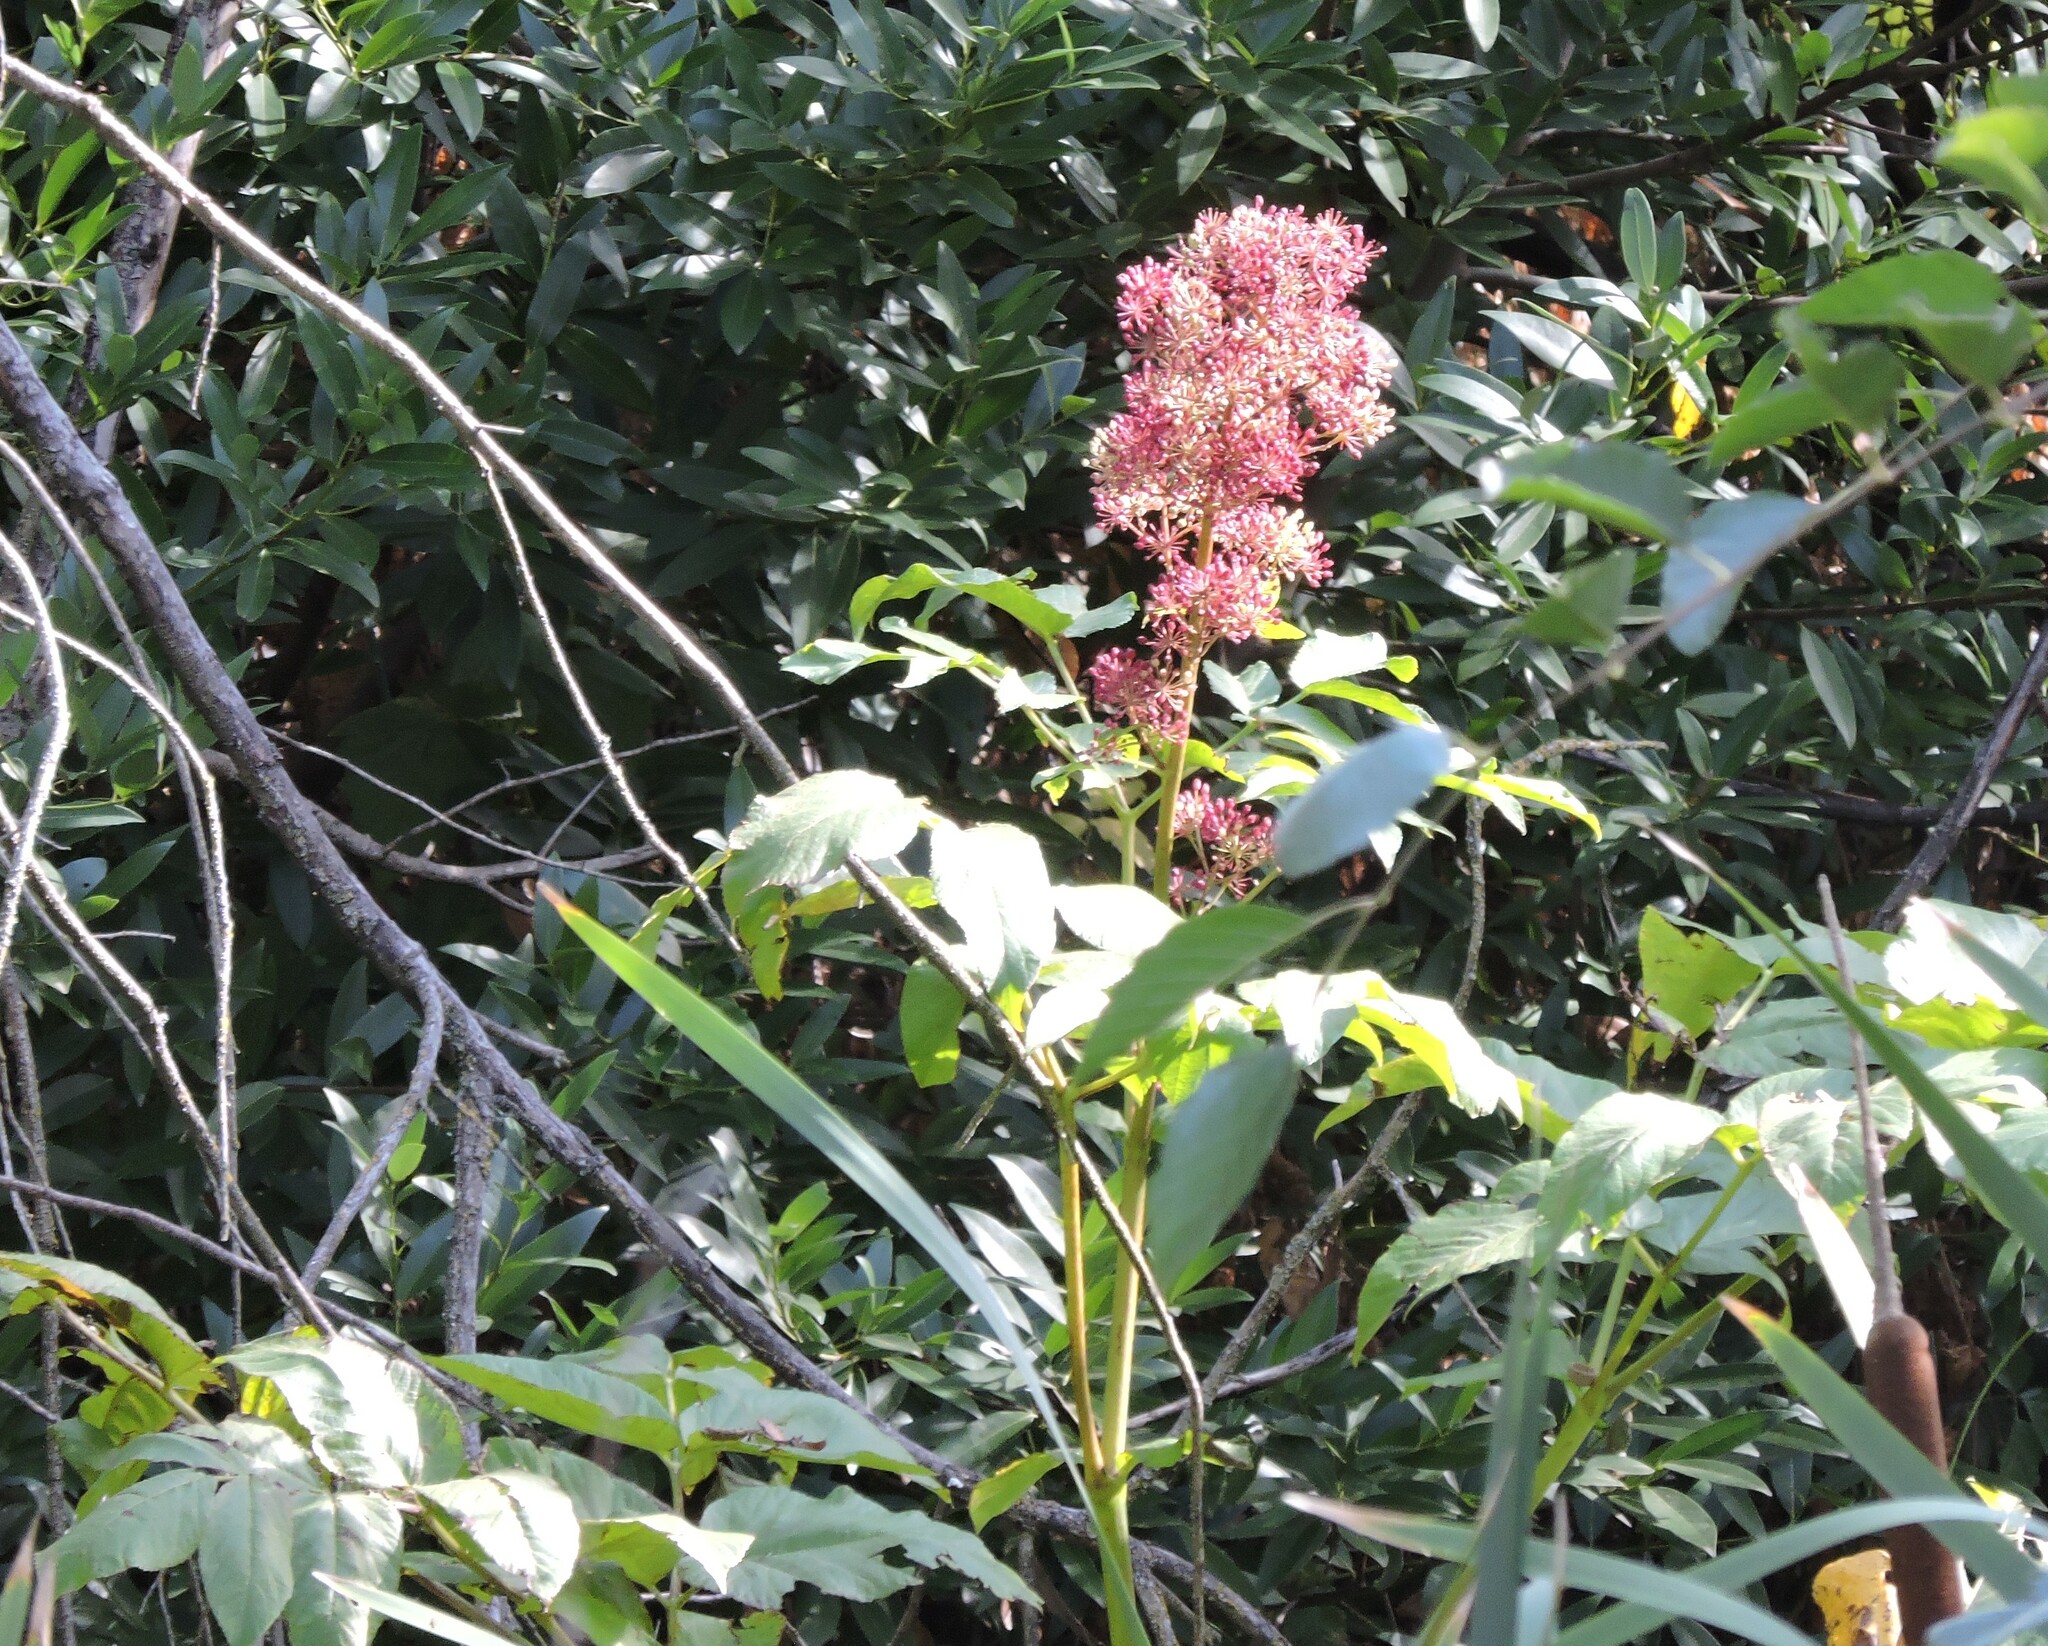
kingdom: Plantae
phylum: Tracheophyta
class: Magnoliopsida
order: Apiales
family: Araliaceae
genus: Aralia
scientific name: Aralia californica
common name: California-ginseng
